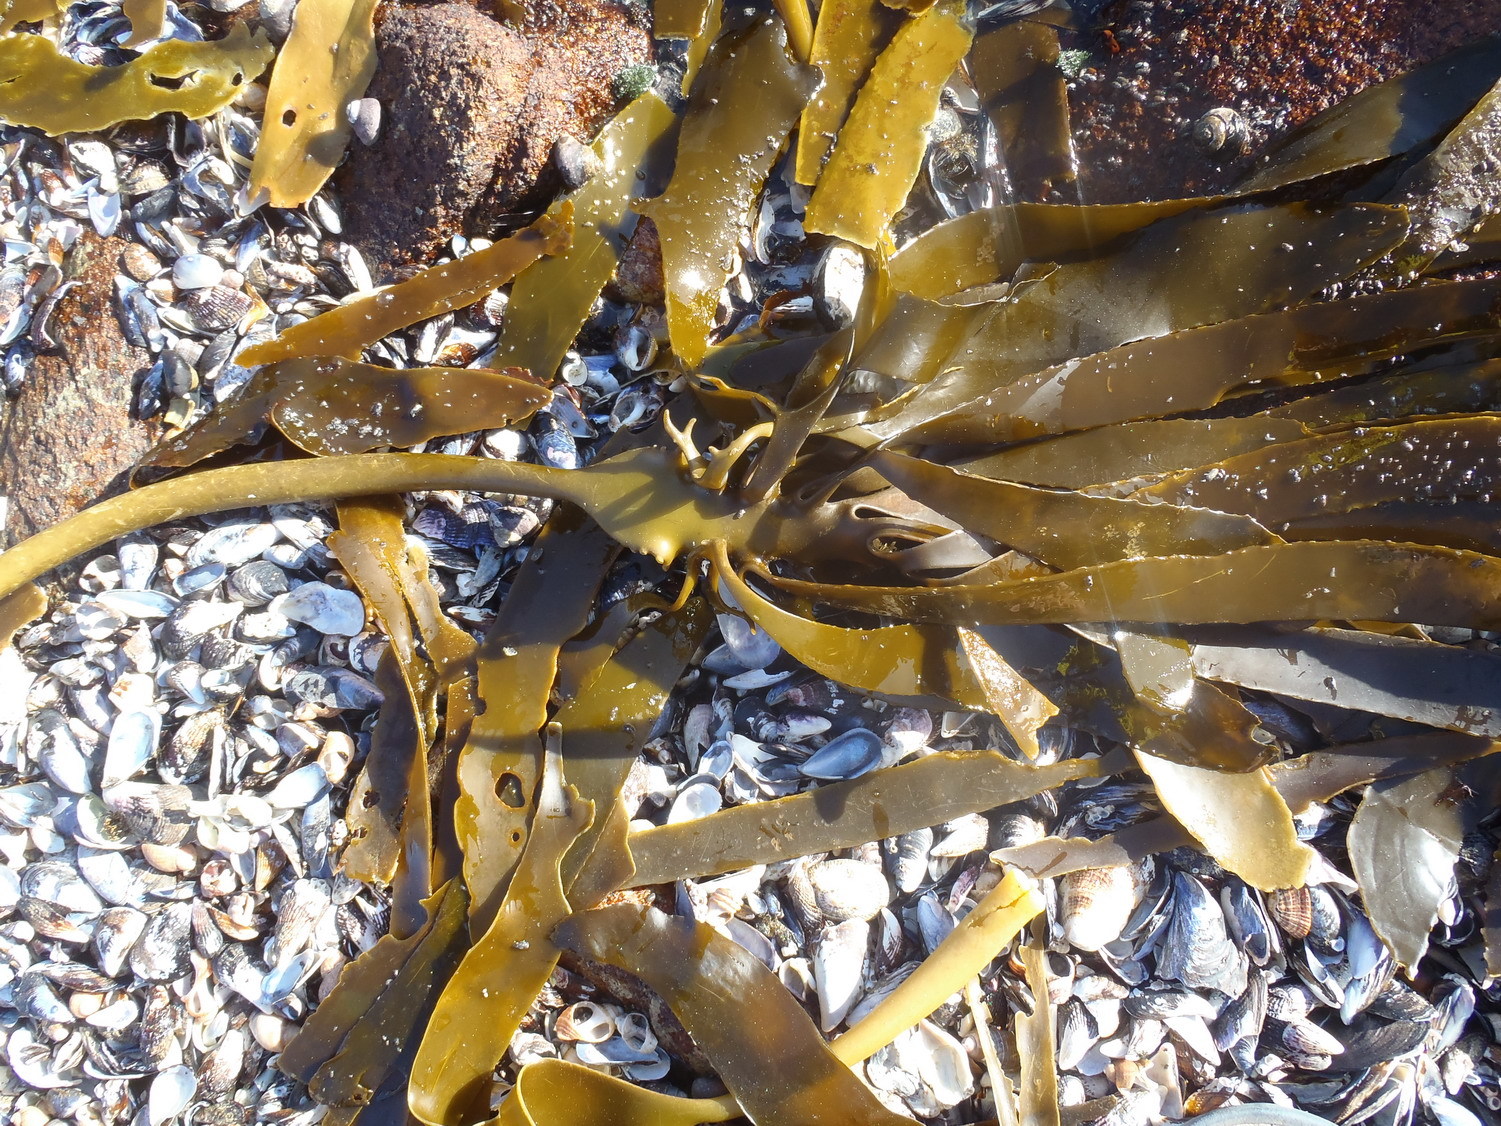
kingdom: Chromista
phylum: Ochrophyta
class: Phaeophyceae
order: Laminariales
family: Lessoniaceae
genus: Ecklonia
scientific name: Ecklonia
